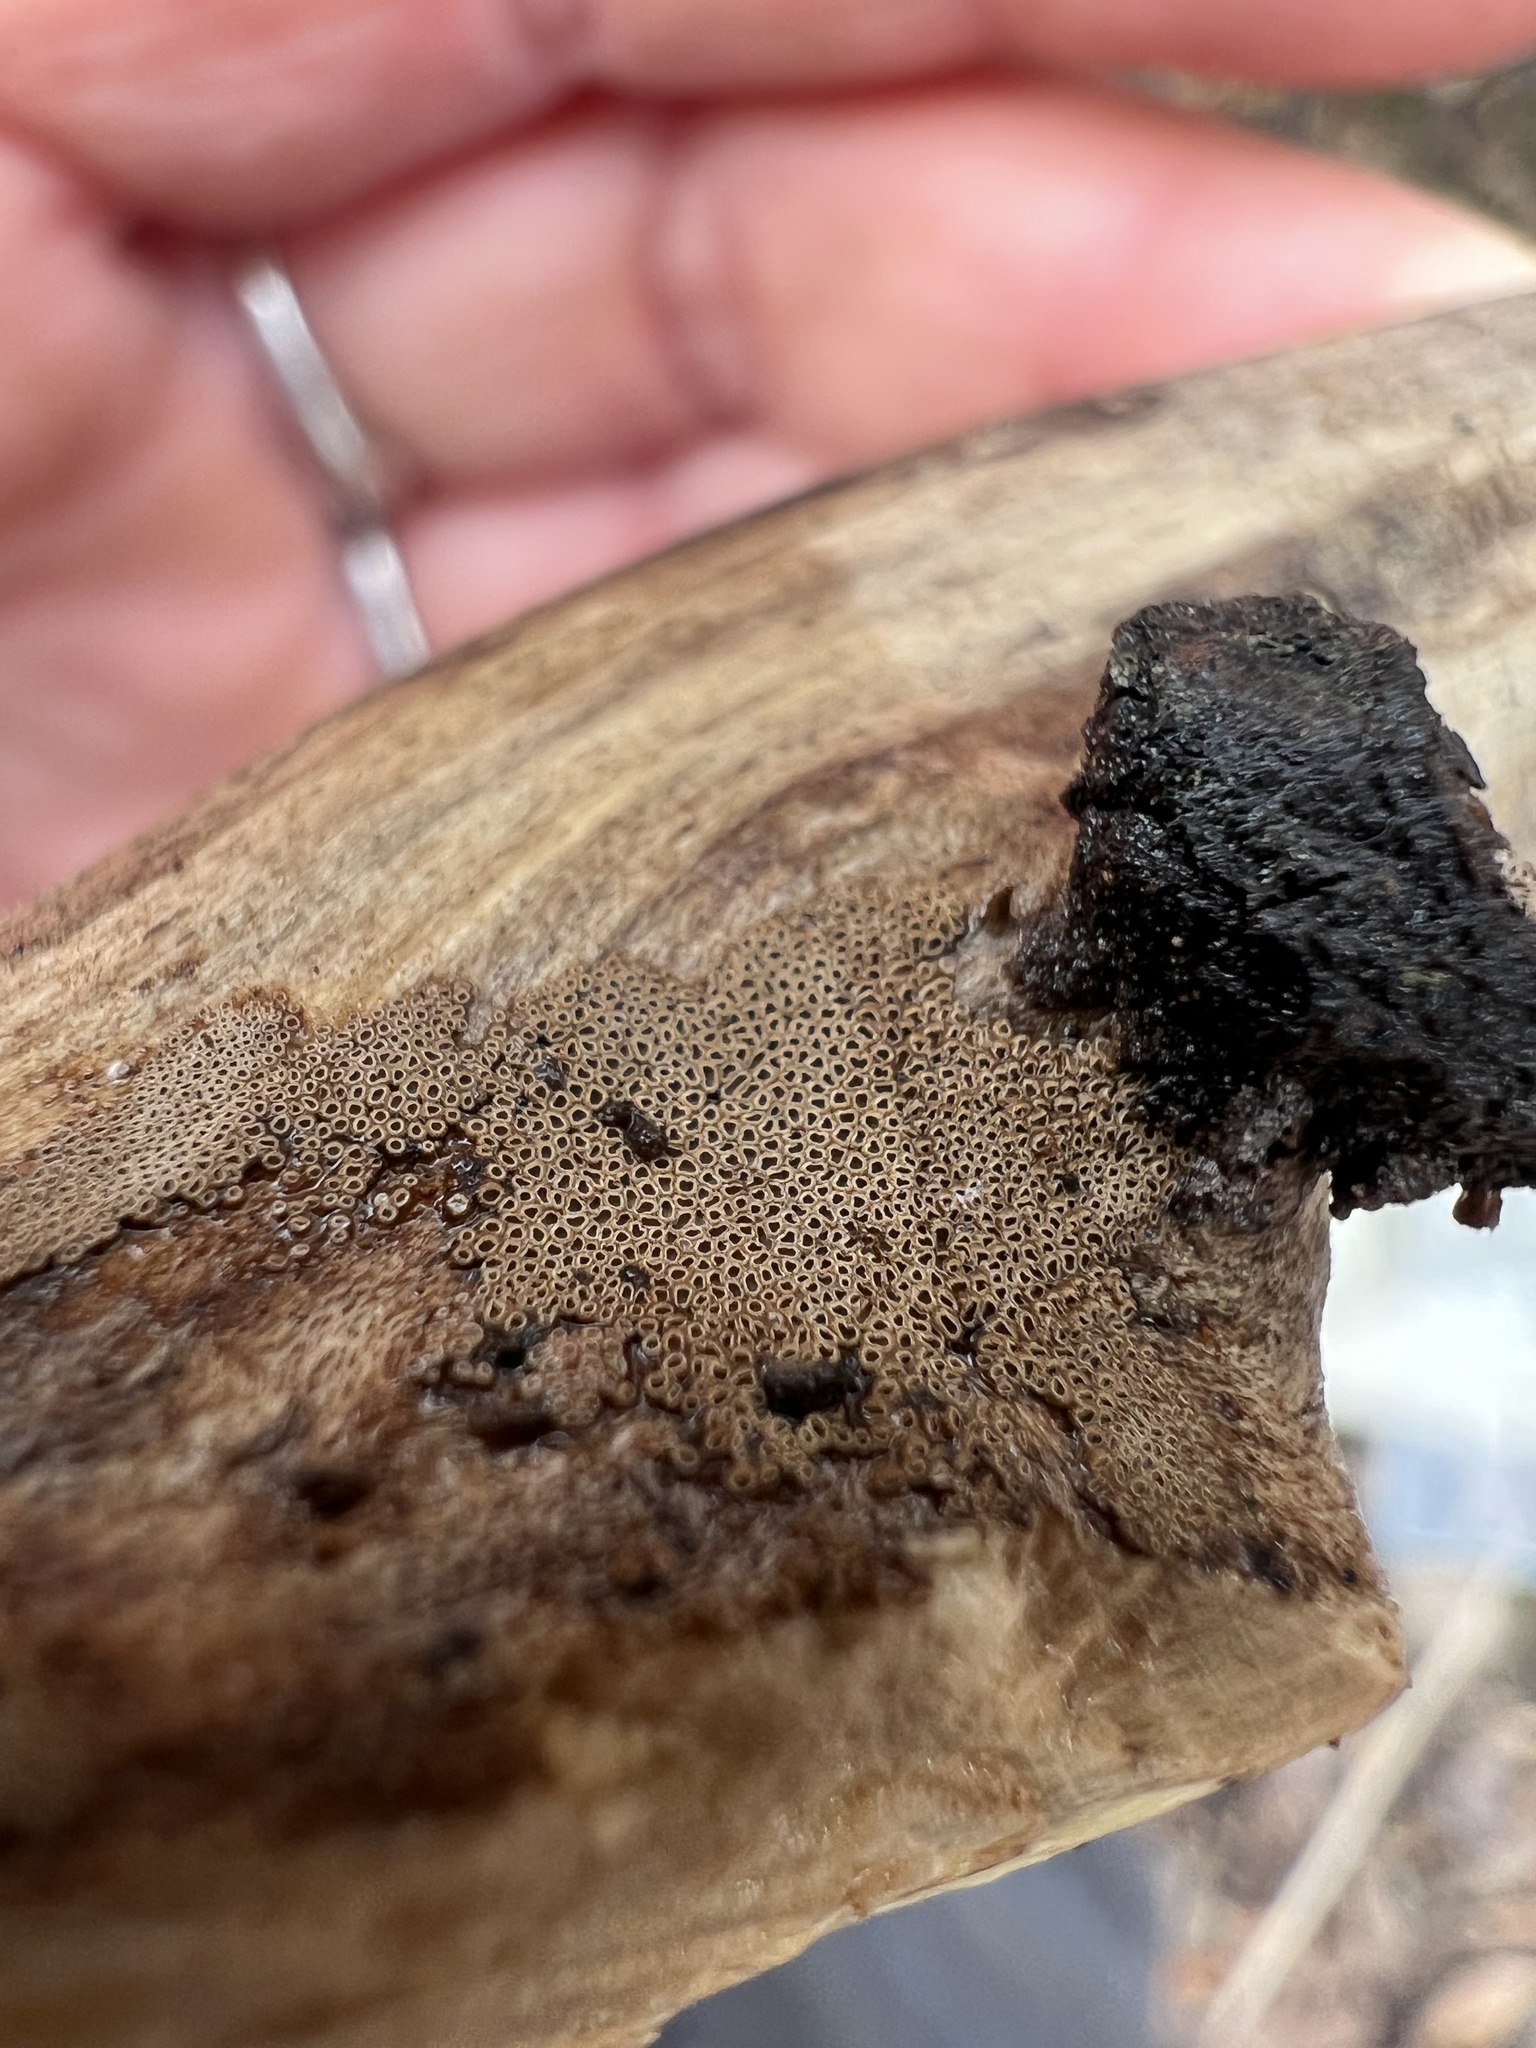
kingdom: Fungi
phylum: Basidiomycota
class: Agaricomycetes
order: Agaricales
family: Niaceae
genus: Merismodes
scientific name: Merismodes fasciculata
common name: Crowded cuplet
